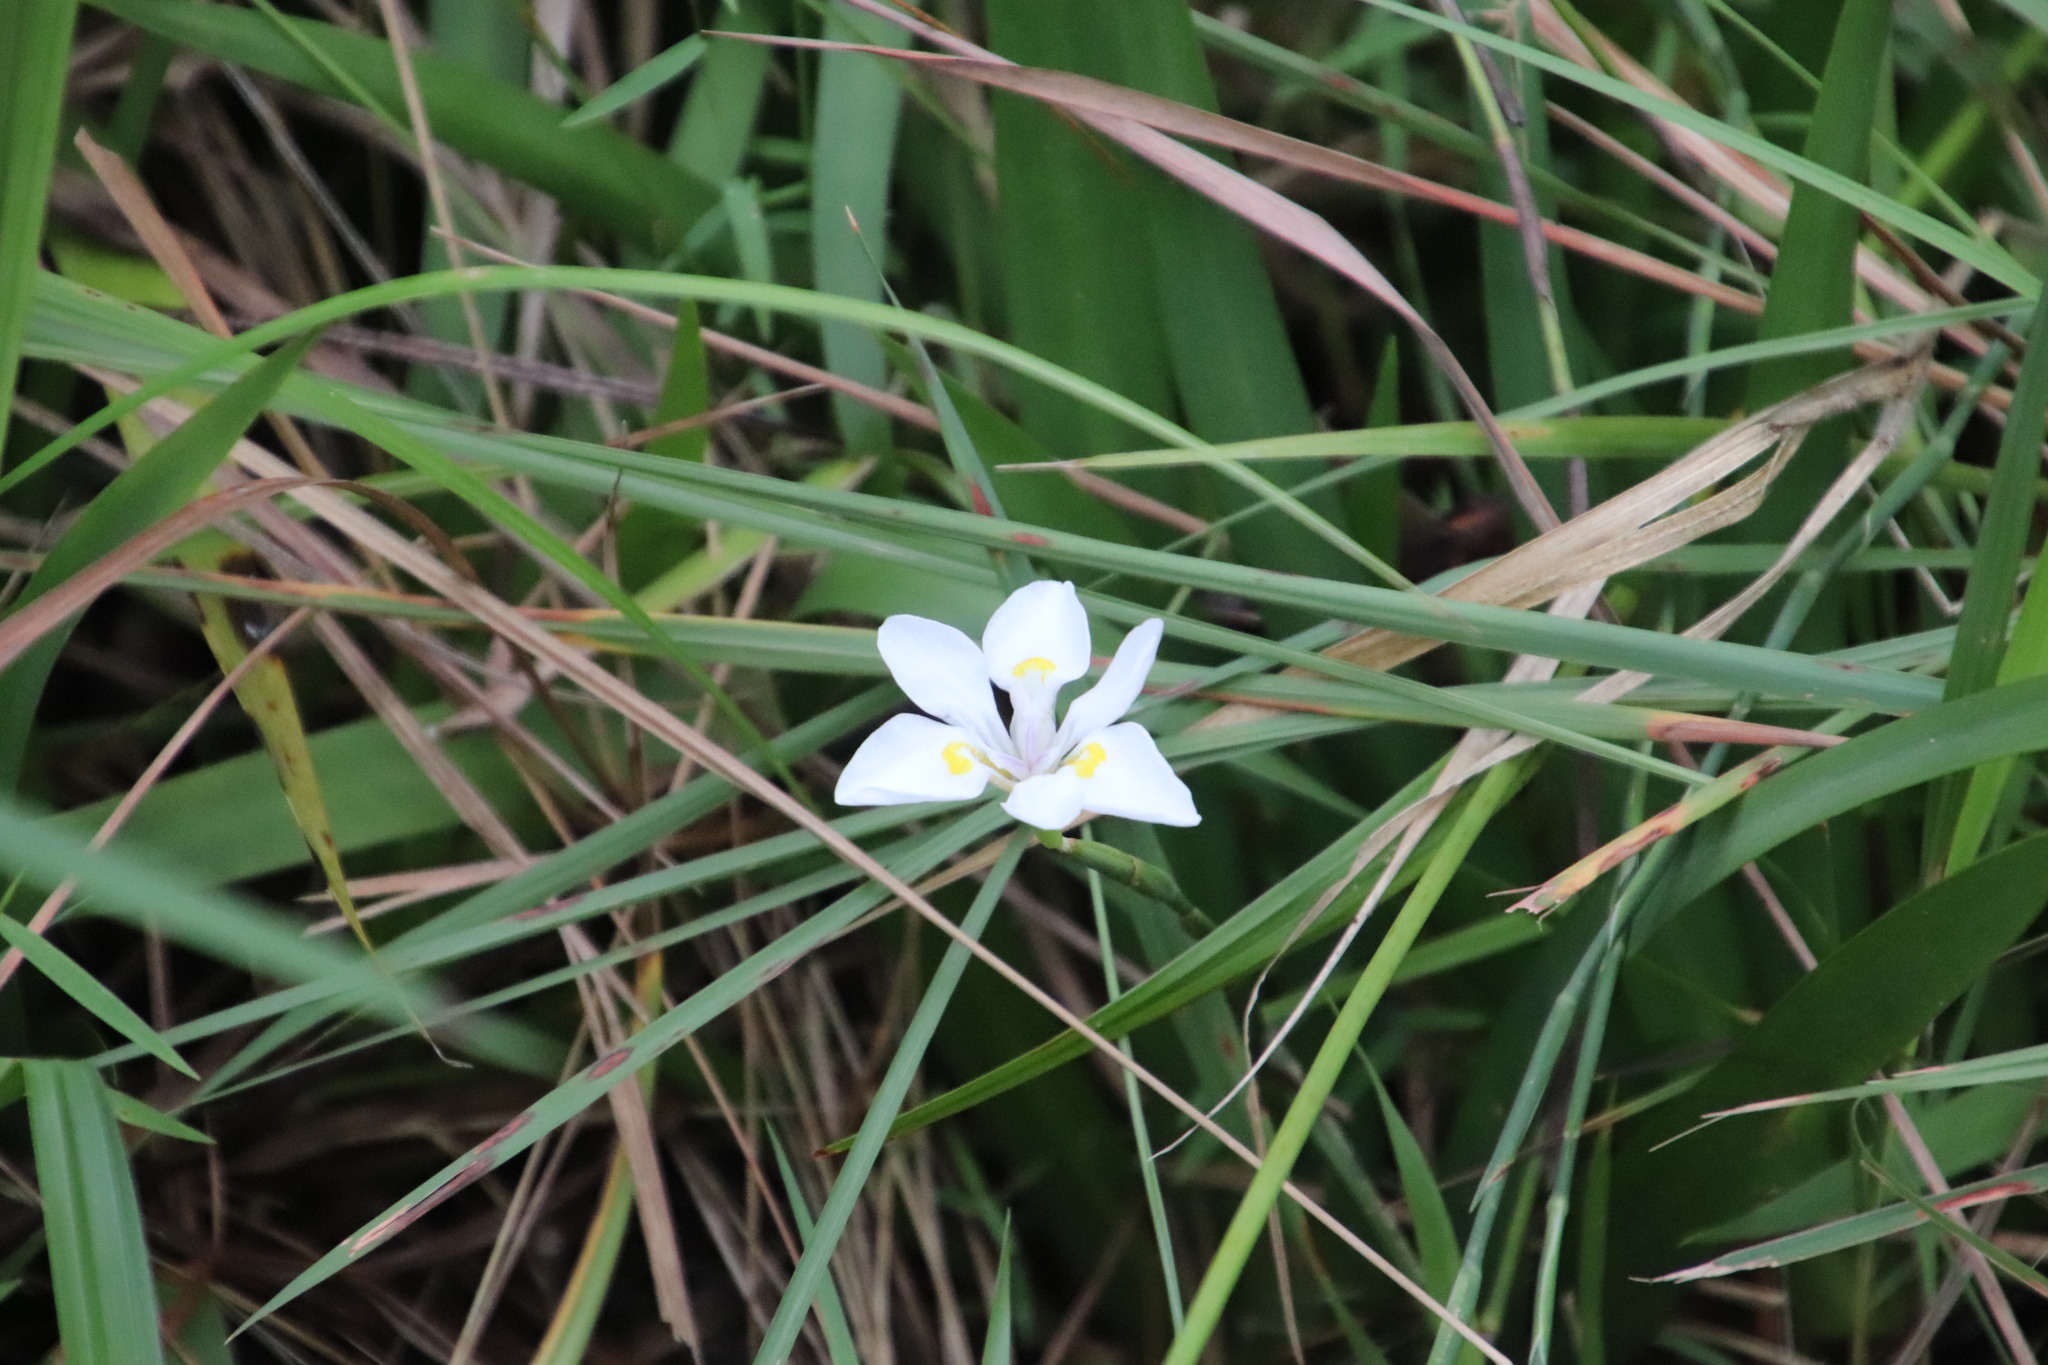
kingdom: Plantae
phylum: Tracheophyta
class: Liliopsida
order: Asparagales
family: Iridaceae
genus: Dietes
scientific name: Dietes iridioides
